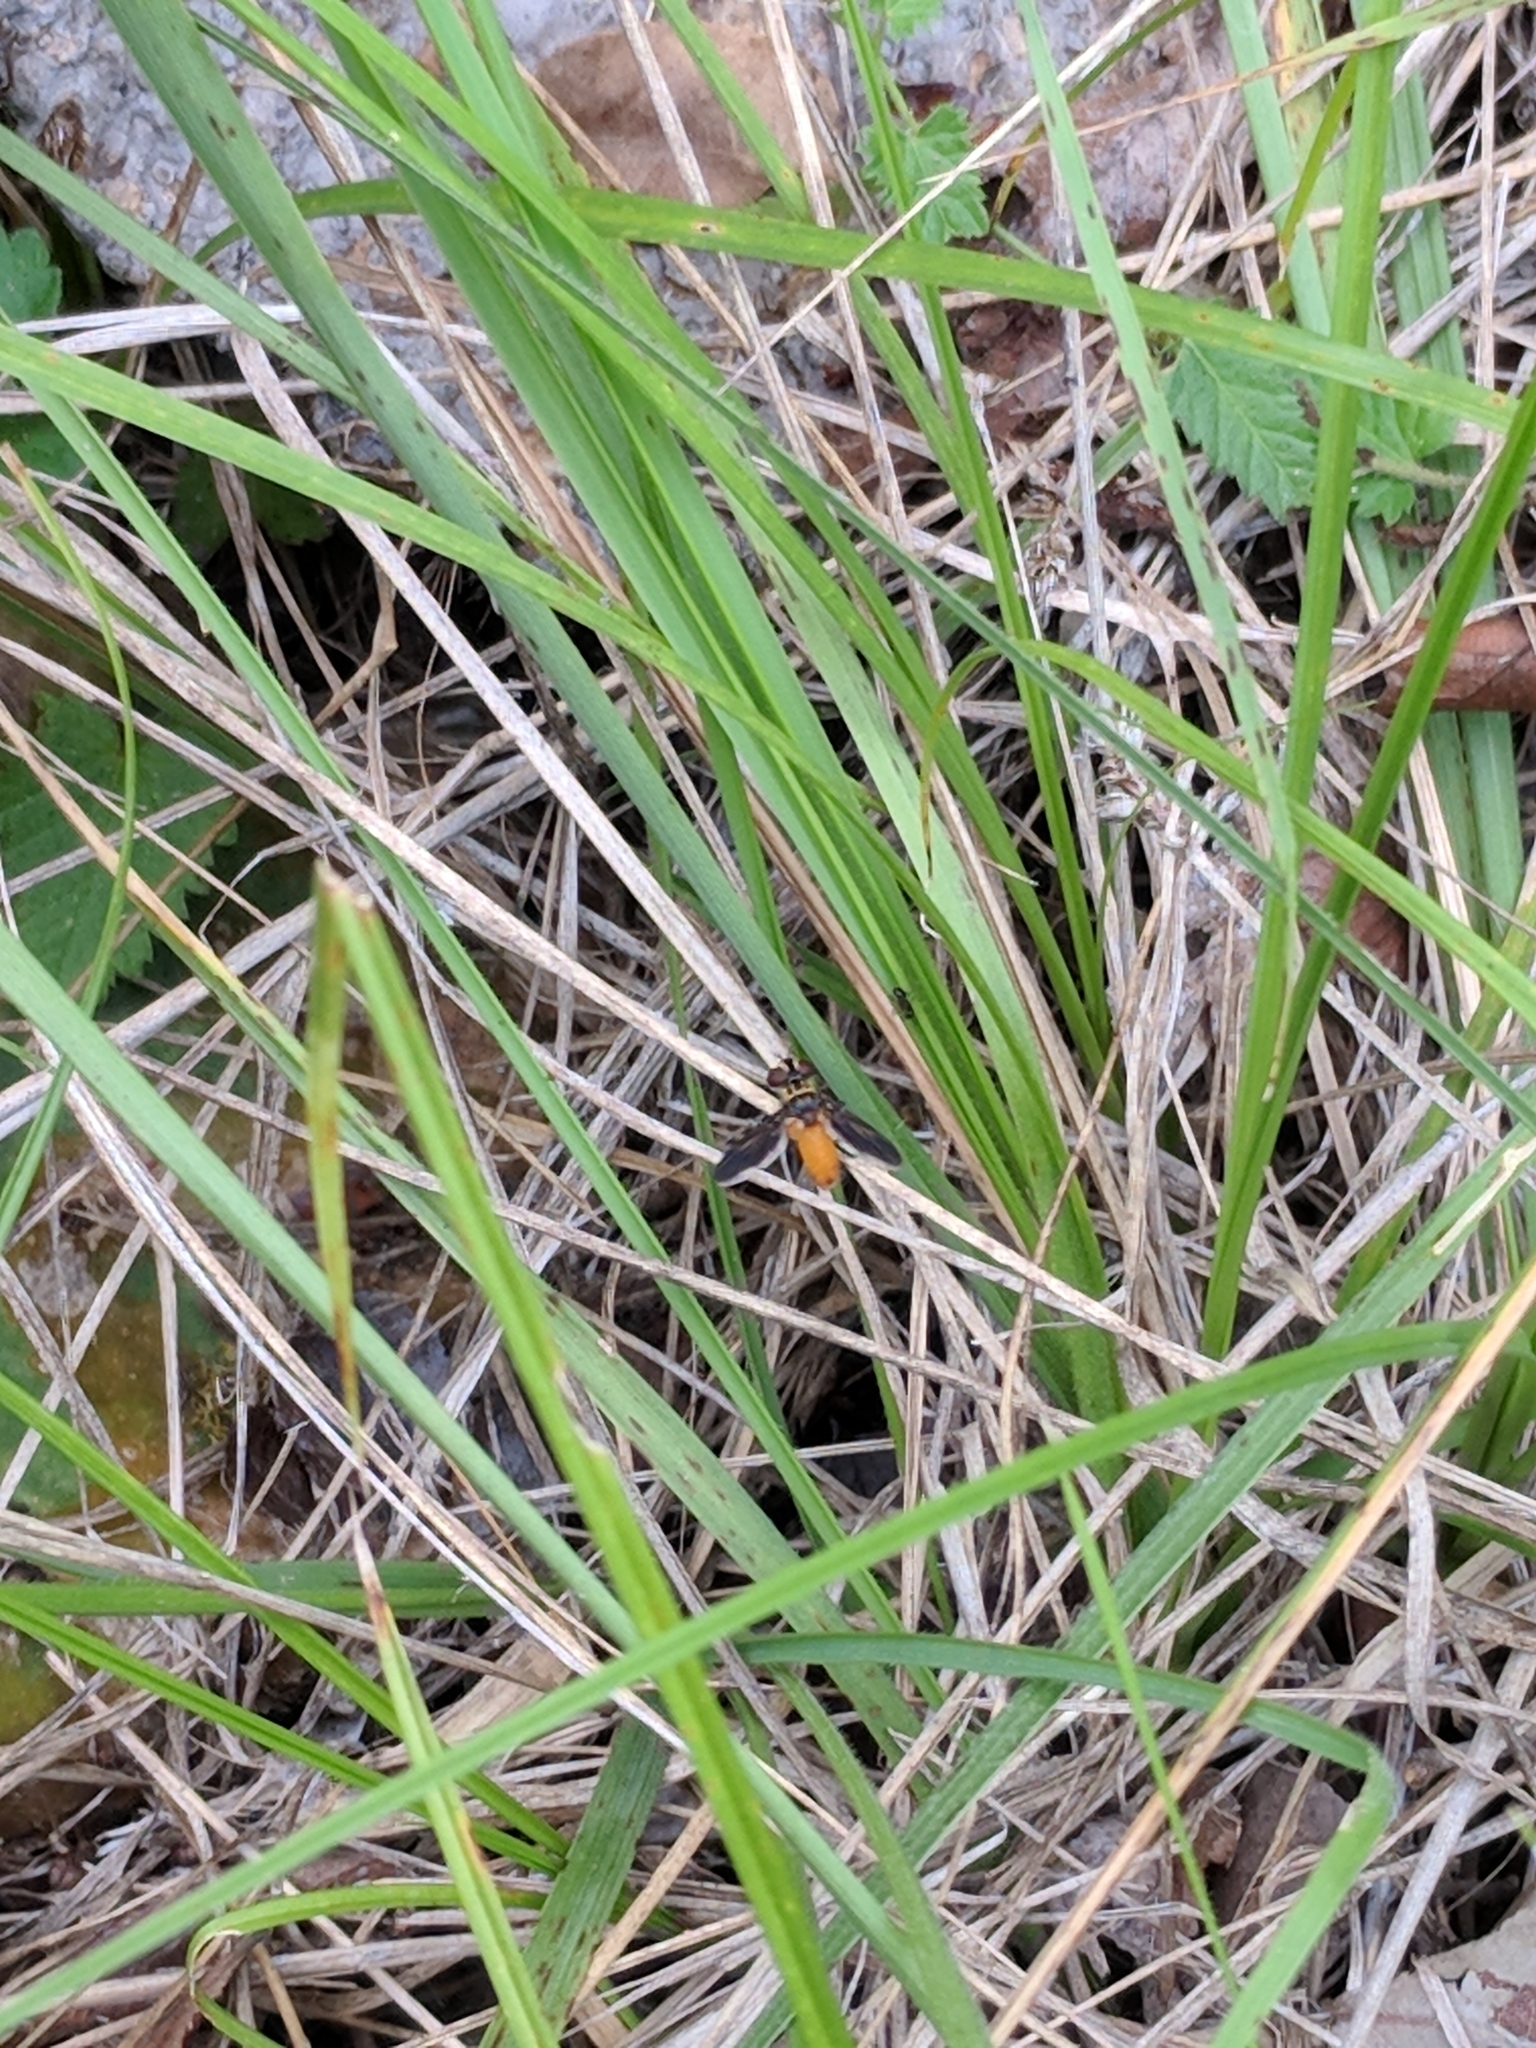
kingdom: Animalia
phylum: Arthropoda
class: Insecta
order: Diptera
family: Tachinidae
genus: Trichopoda
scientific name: Trichopoda pennipes
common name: Tachinid fly
